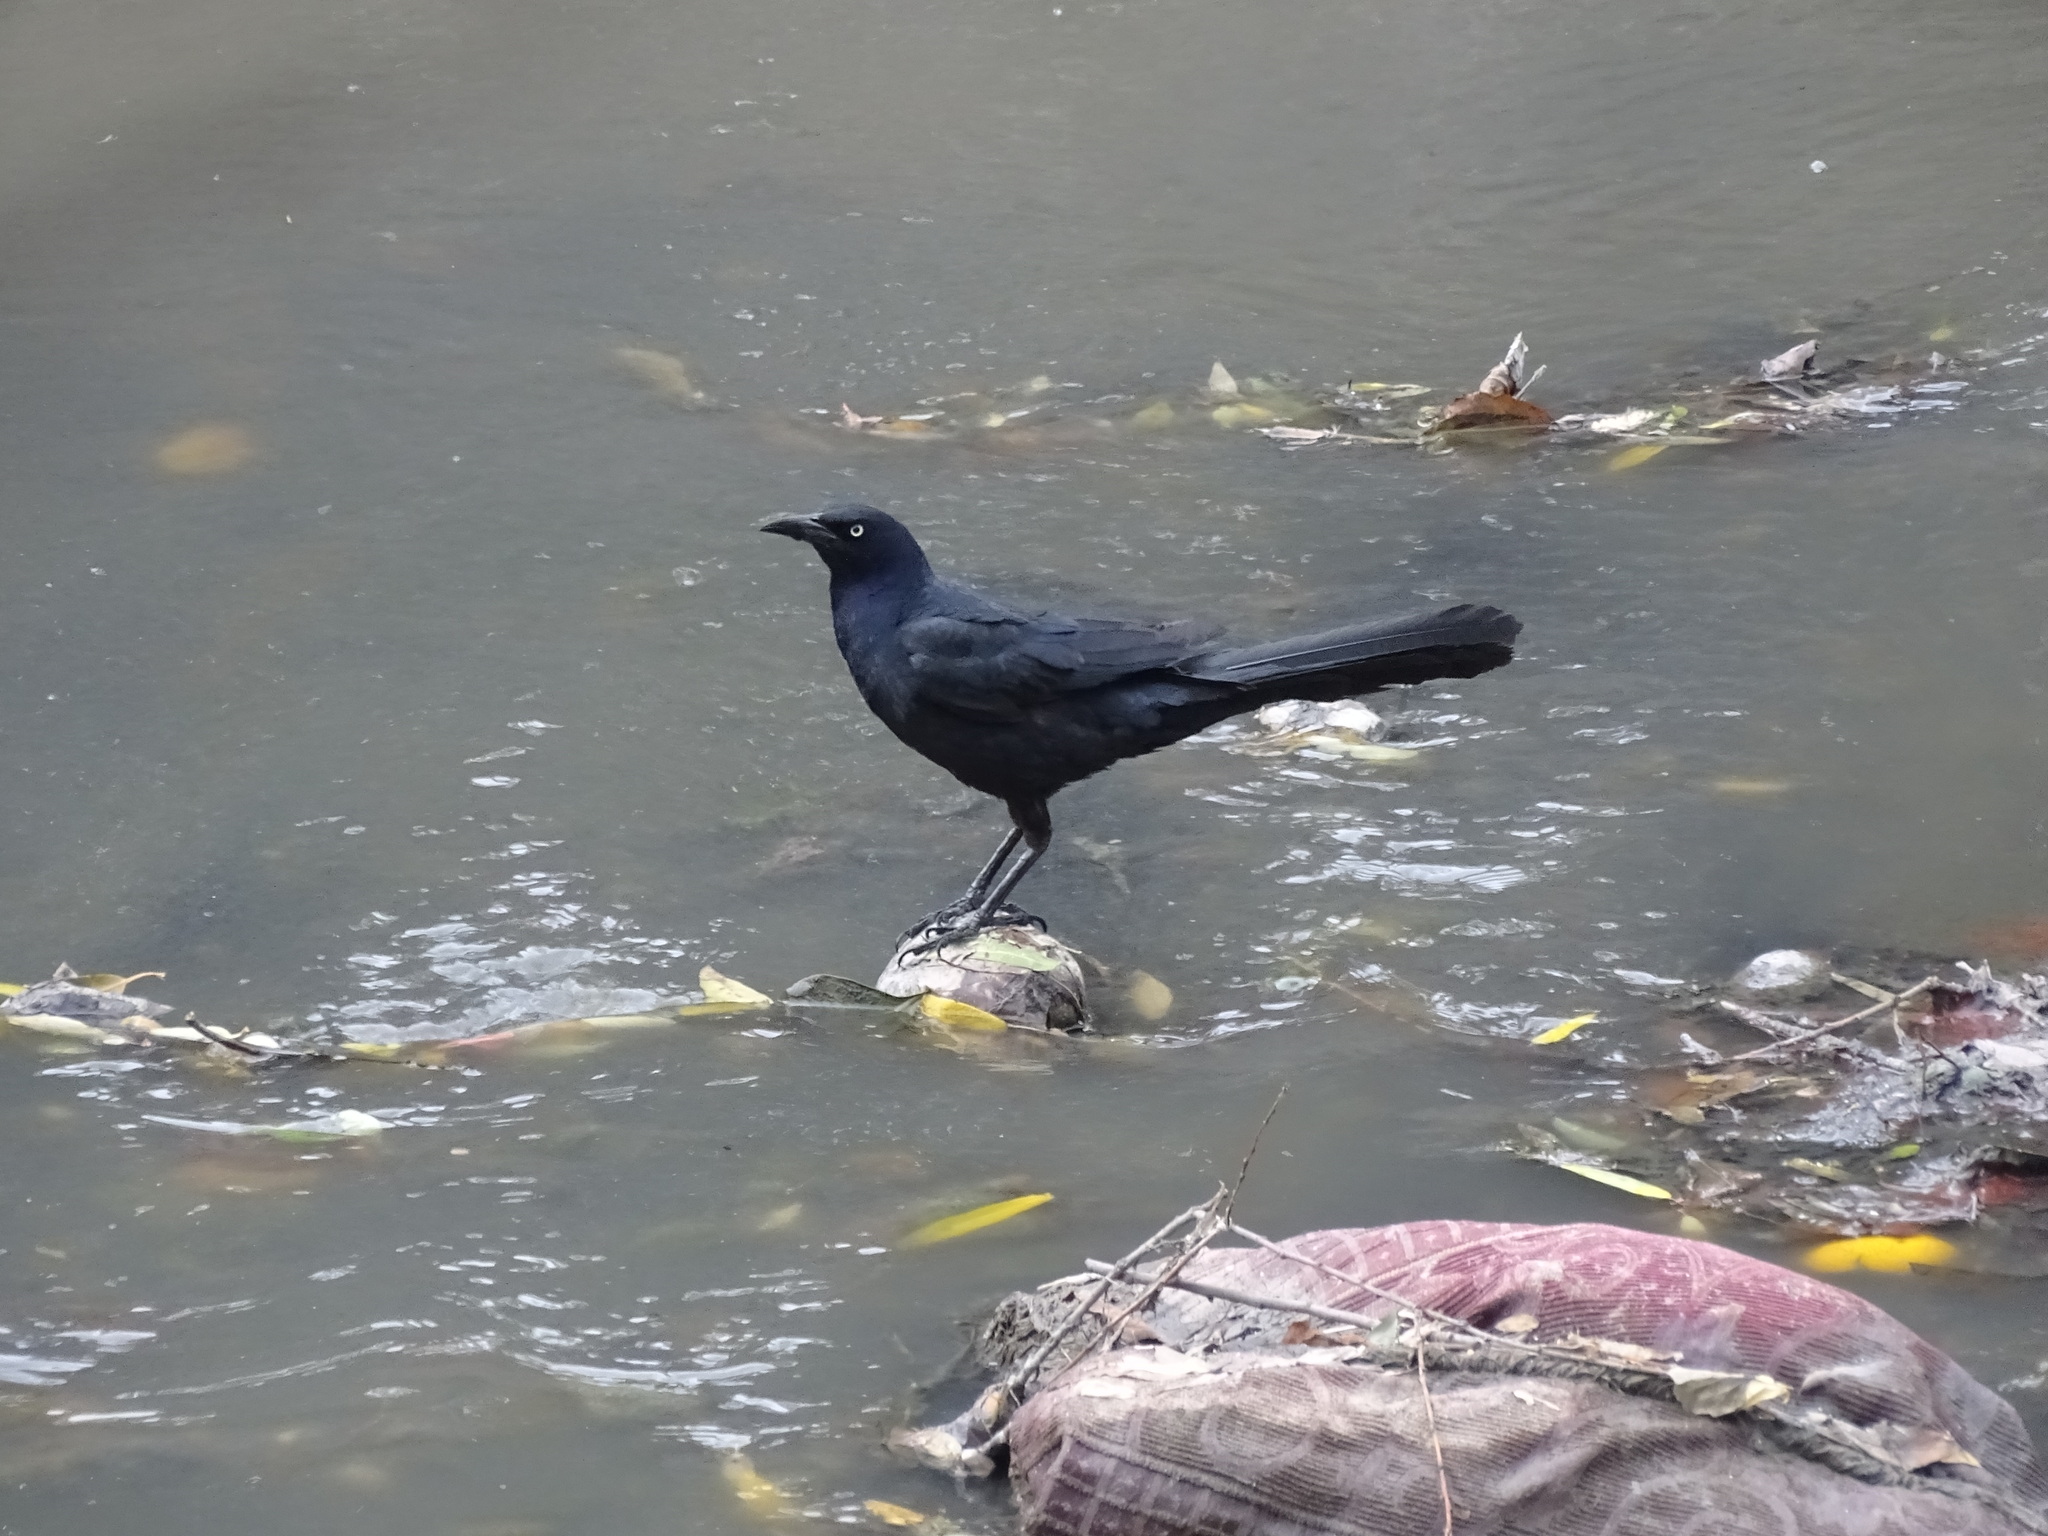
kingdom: Animalia
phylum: Chordata
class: Aves
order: Passeriformes
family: Icteridae
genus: Quiscalus
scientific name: Quiscalus mexicanus
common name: Great-tailed grackle
